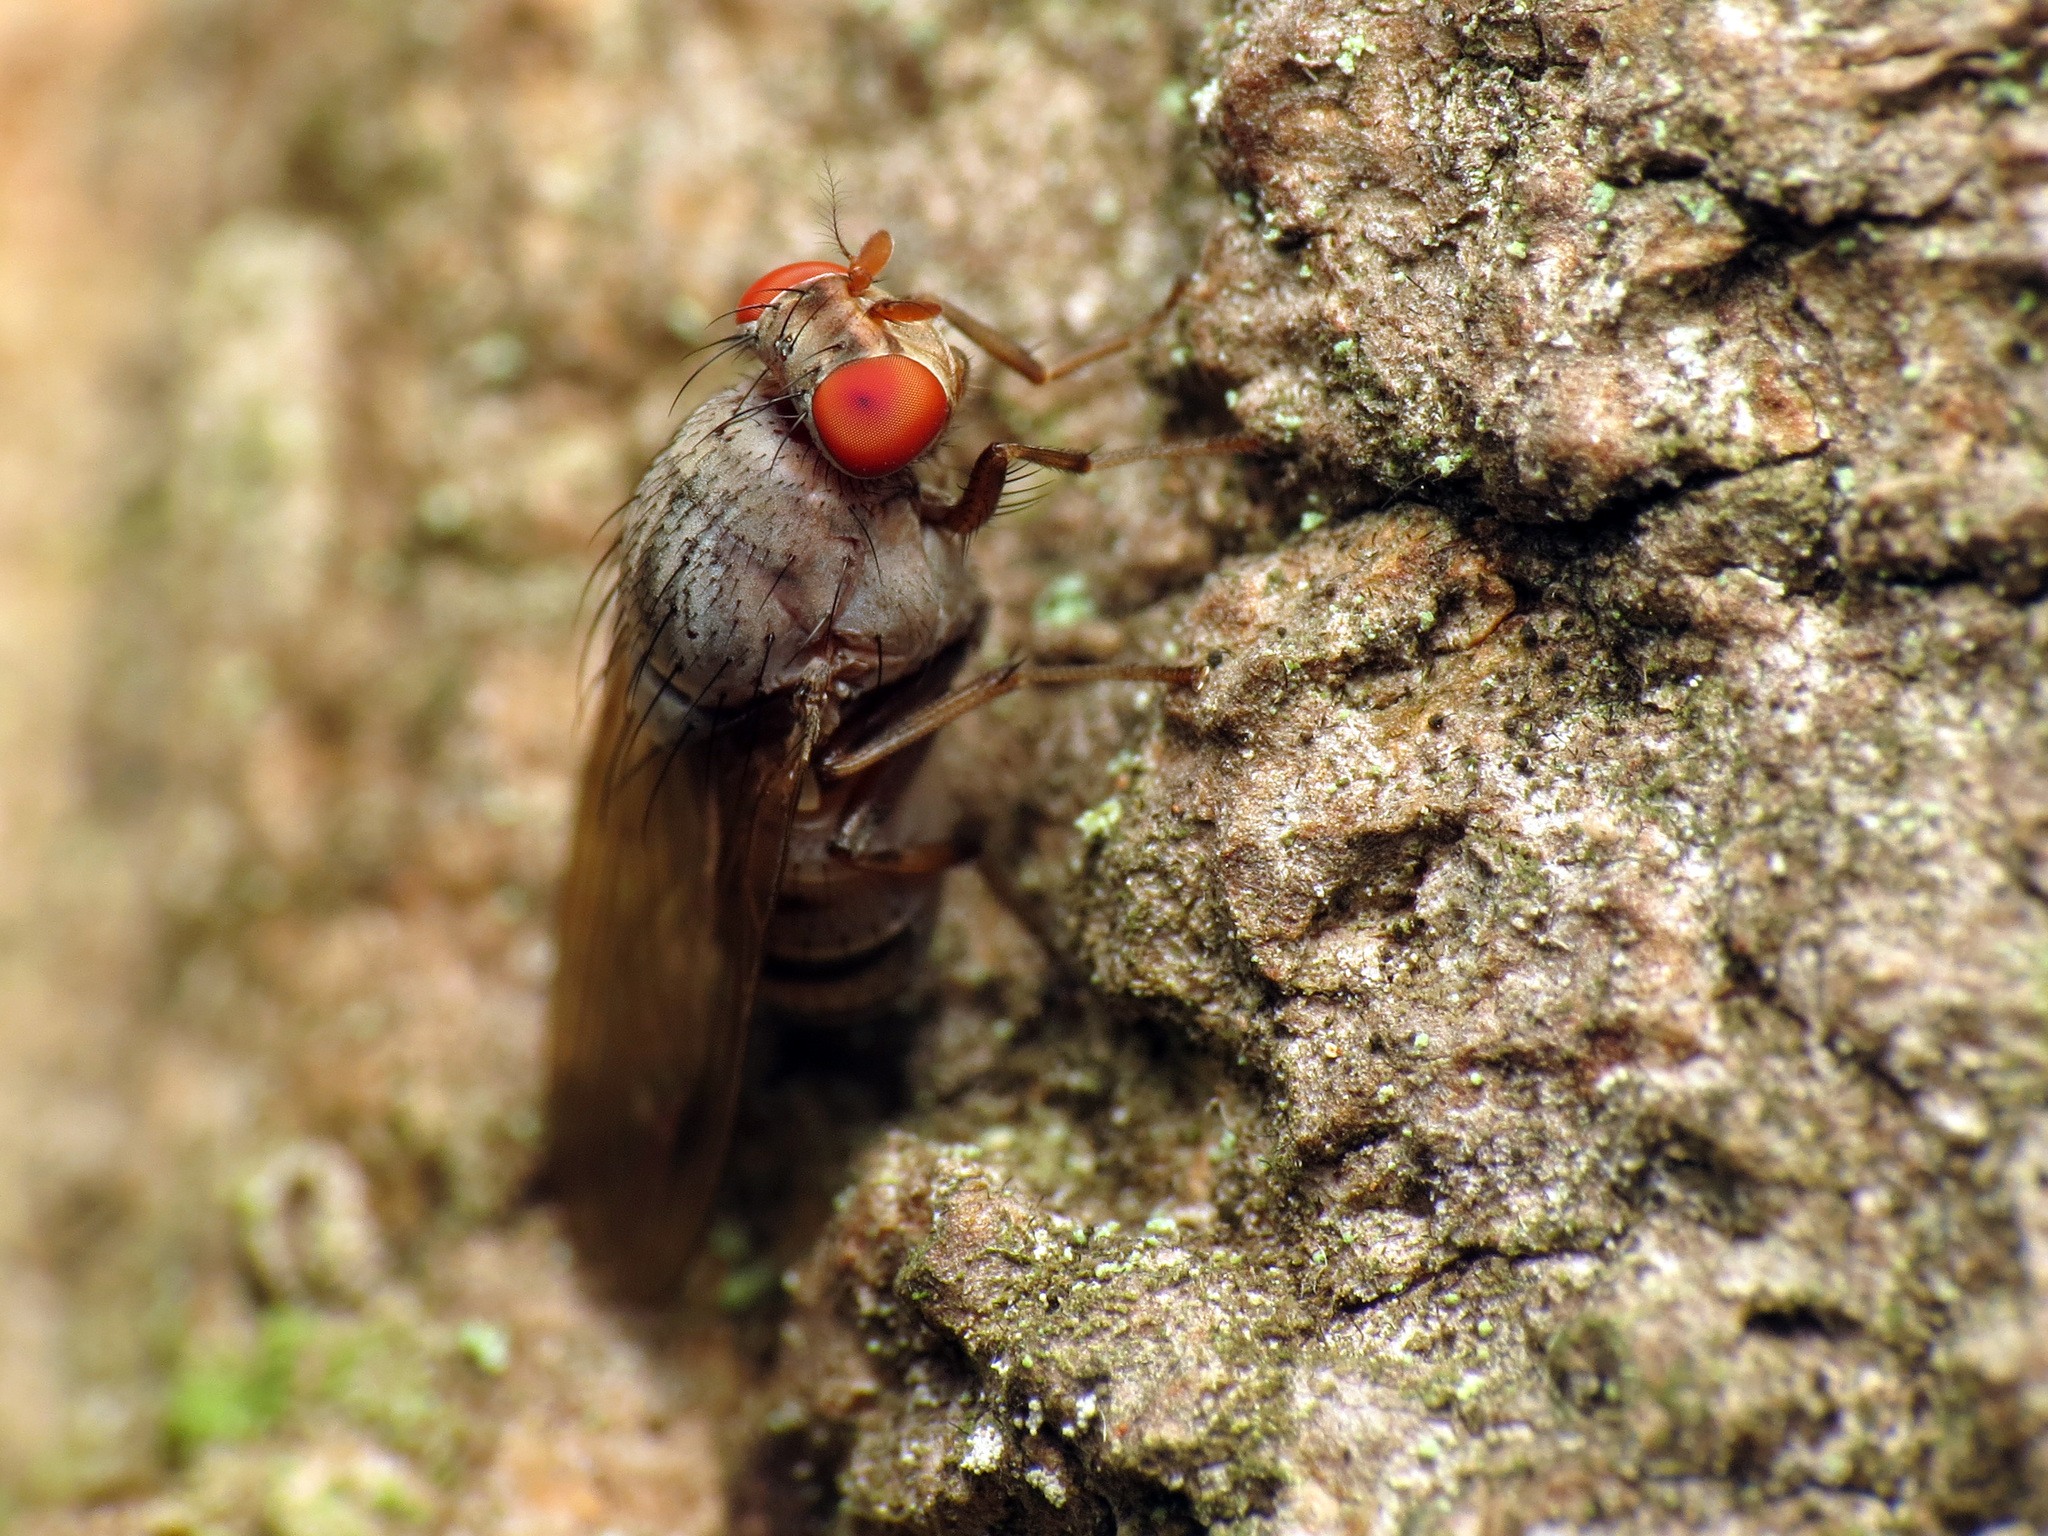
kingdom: Animalia
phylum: Arthropoda
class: Insecta
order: Diptera
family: Lauxaniidae
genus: Minettia
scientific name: Minettia magna
